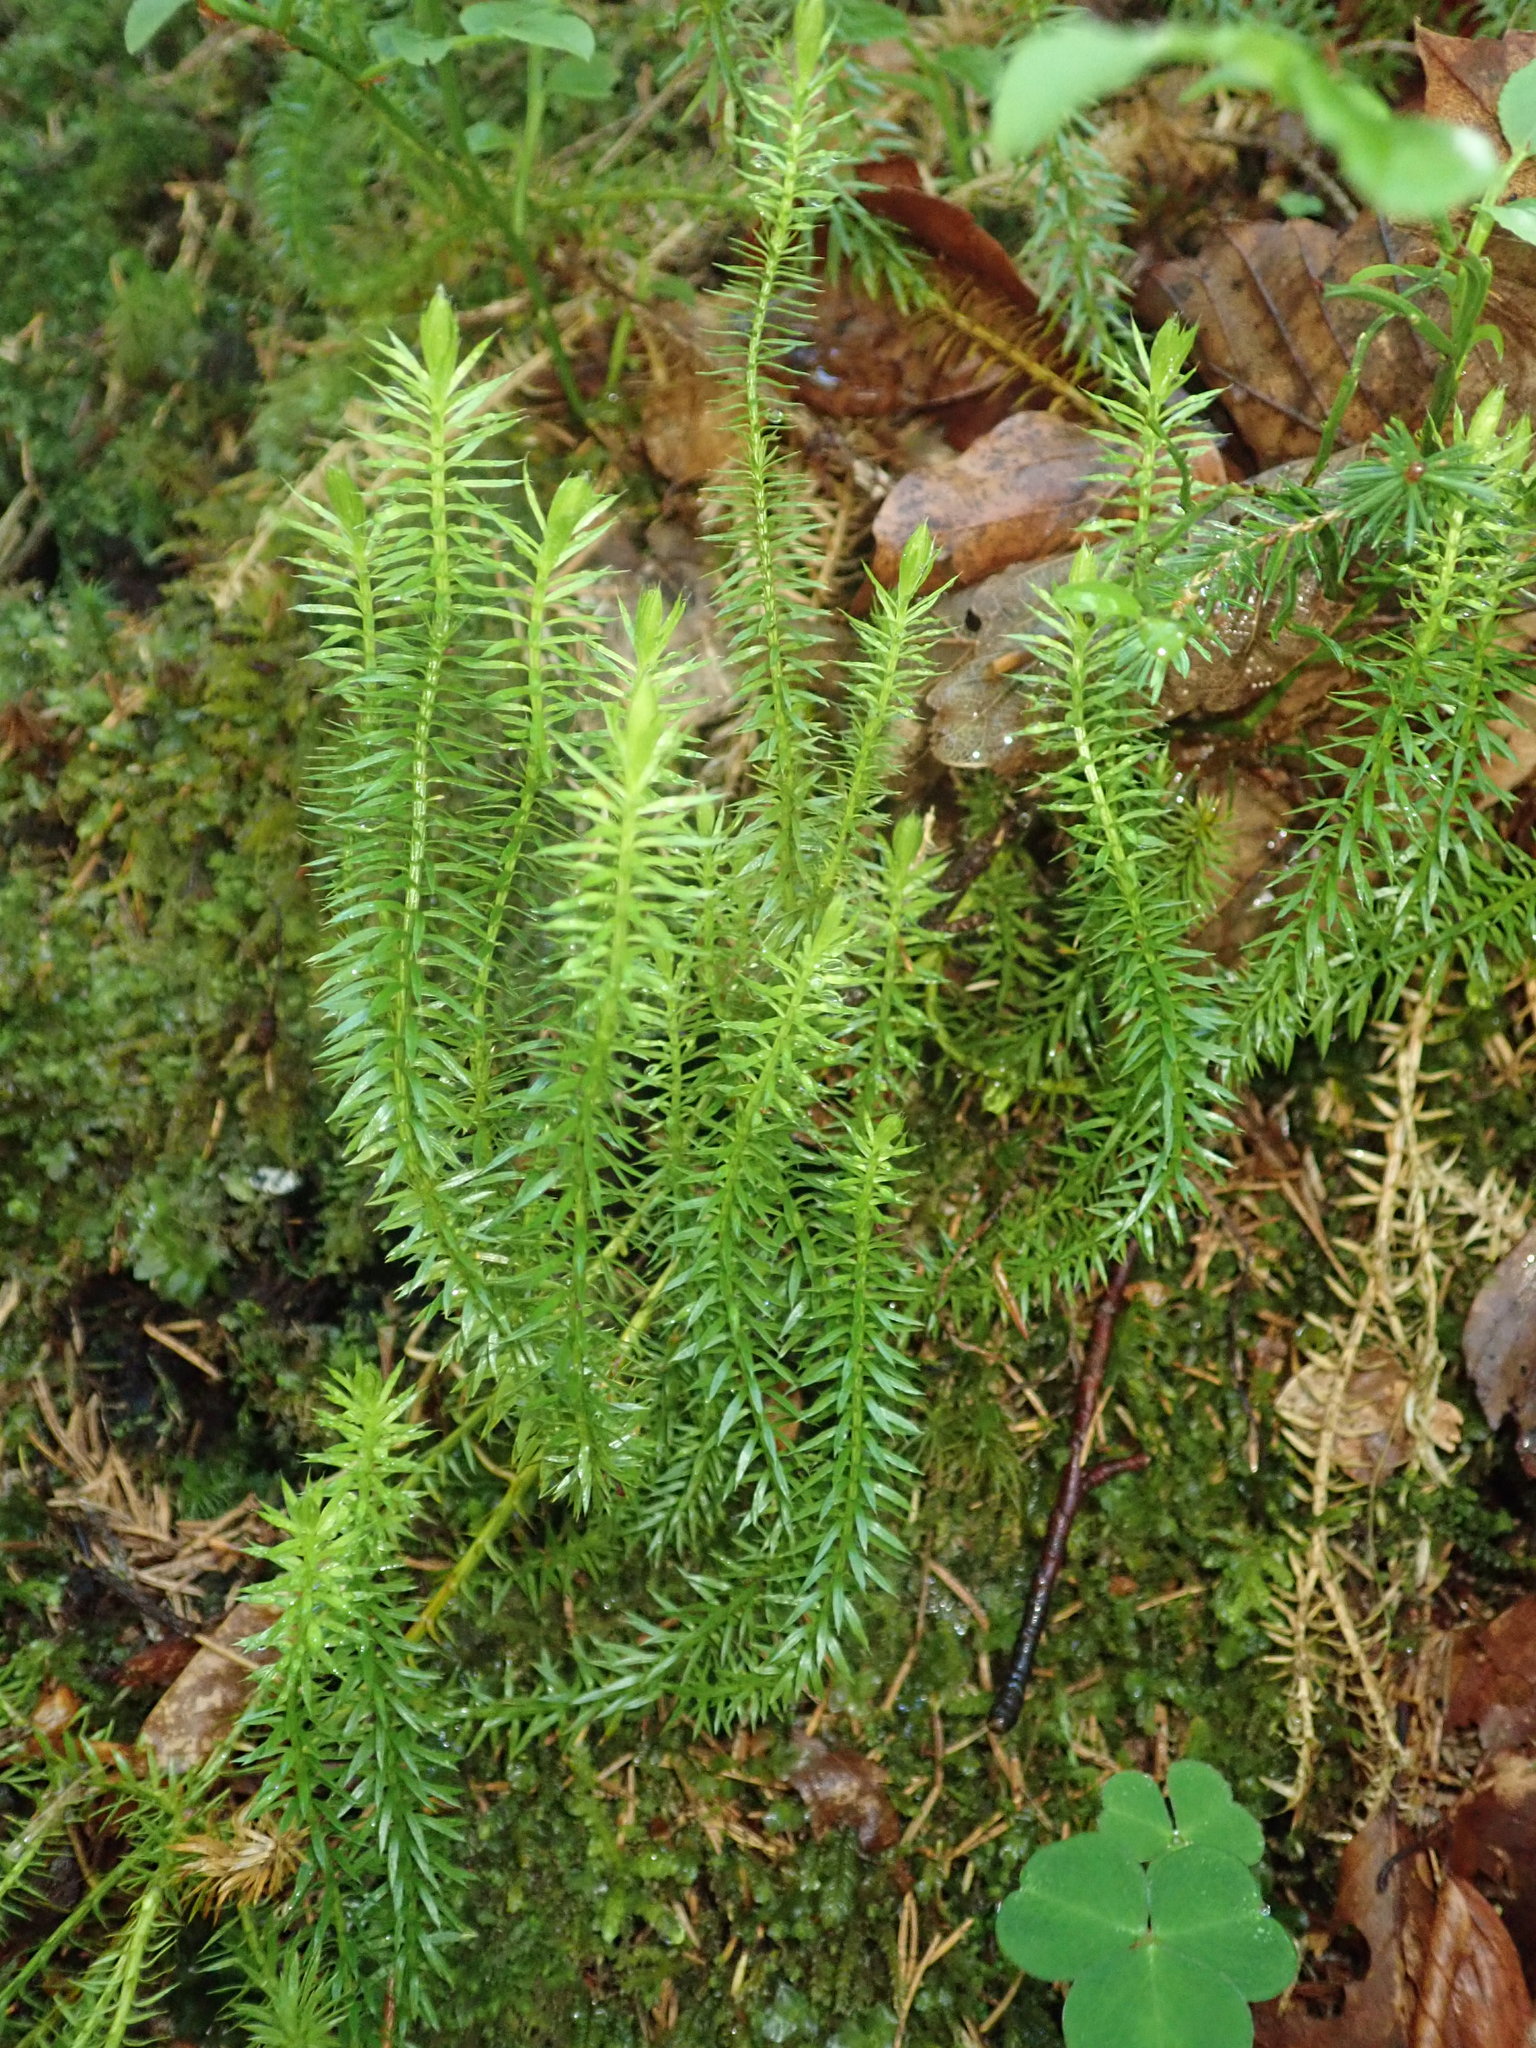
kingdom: Plantae
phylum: Tracheophyta
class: Lycopodiopsida
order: Lycopodiales
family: Lycopodiaceae
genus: Spinulum
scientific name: Spinulum annotinum
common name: Interrupted club-moss
